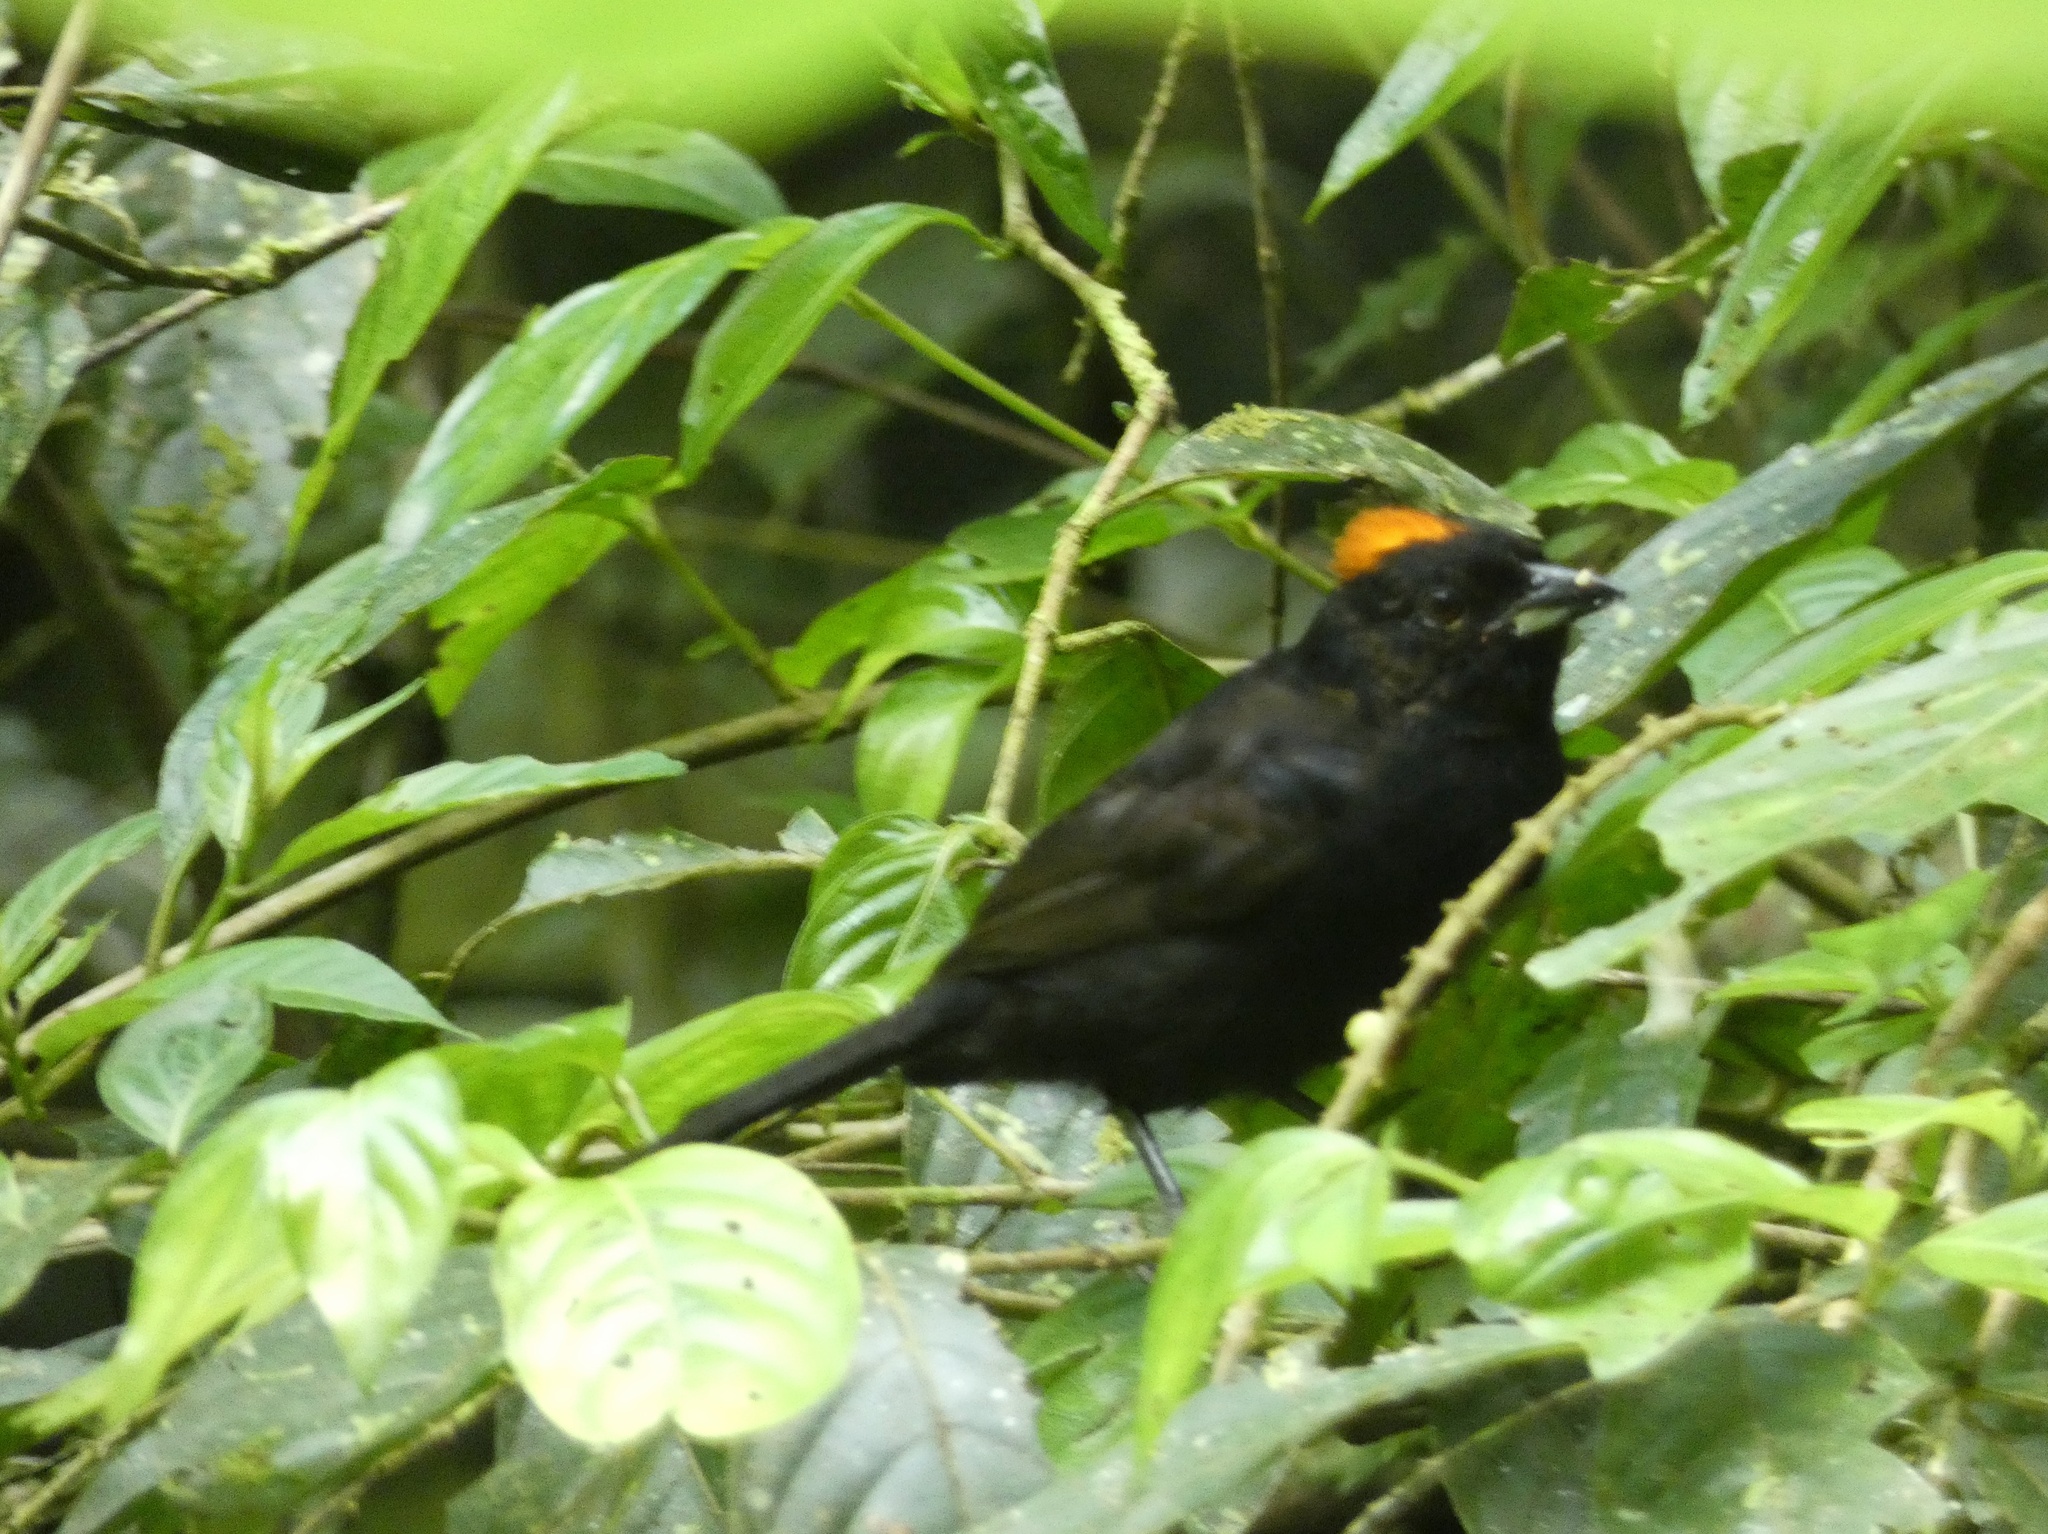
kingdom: Animalia
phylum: Chordata
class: Aves
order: Passeriformes
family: Thraupidae
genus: Tachyphonus
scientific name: Tachyphonus delatrii
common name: Tawny-crested tanager
